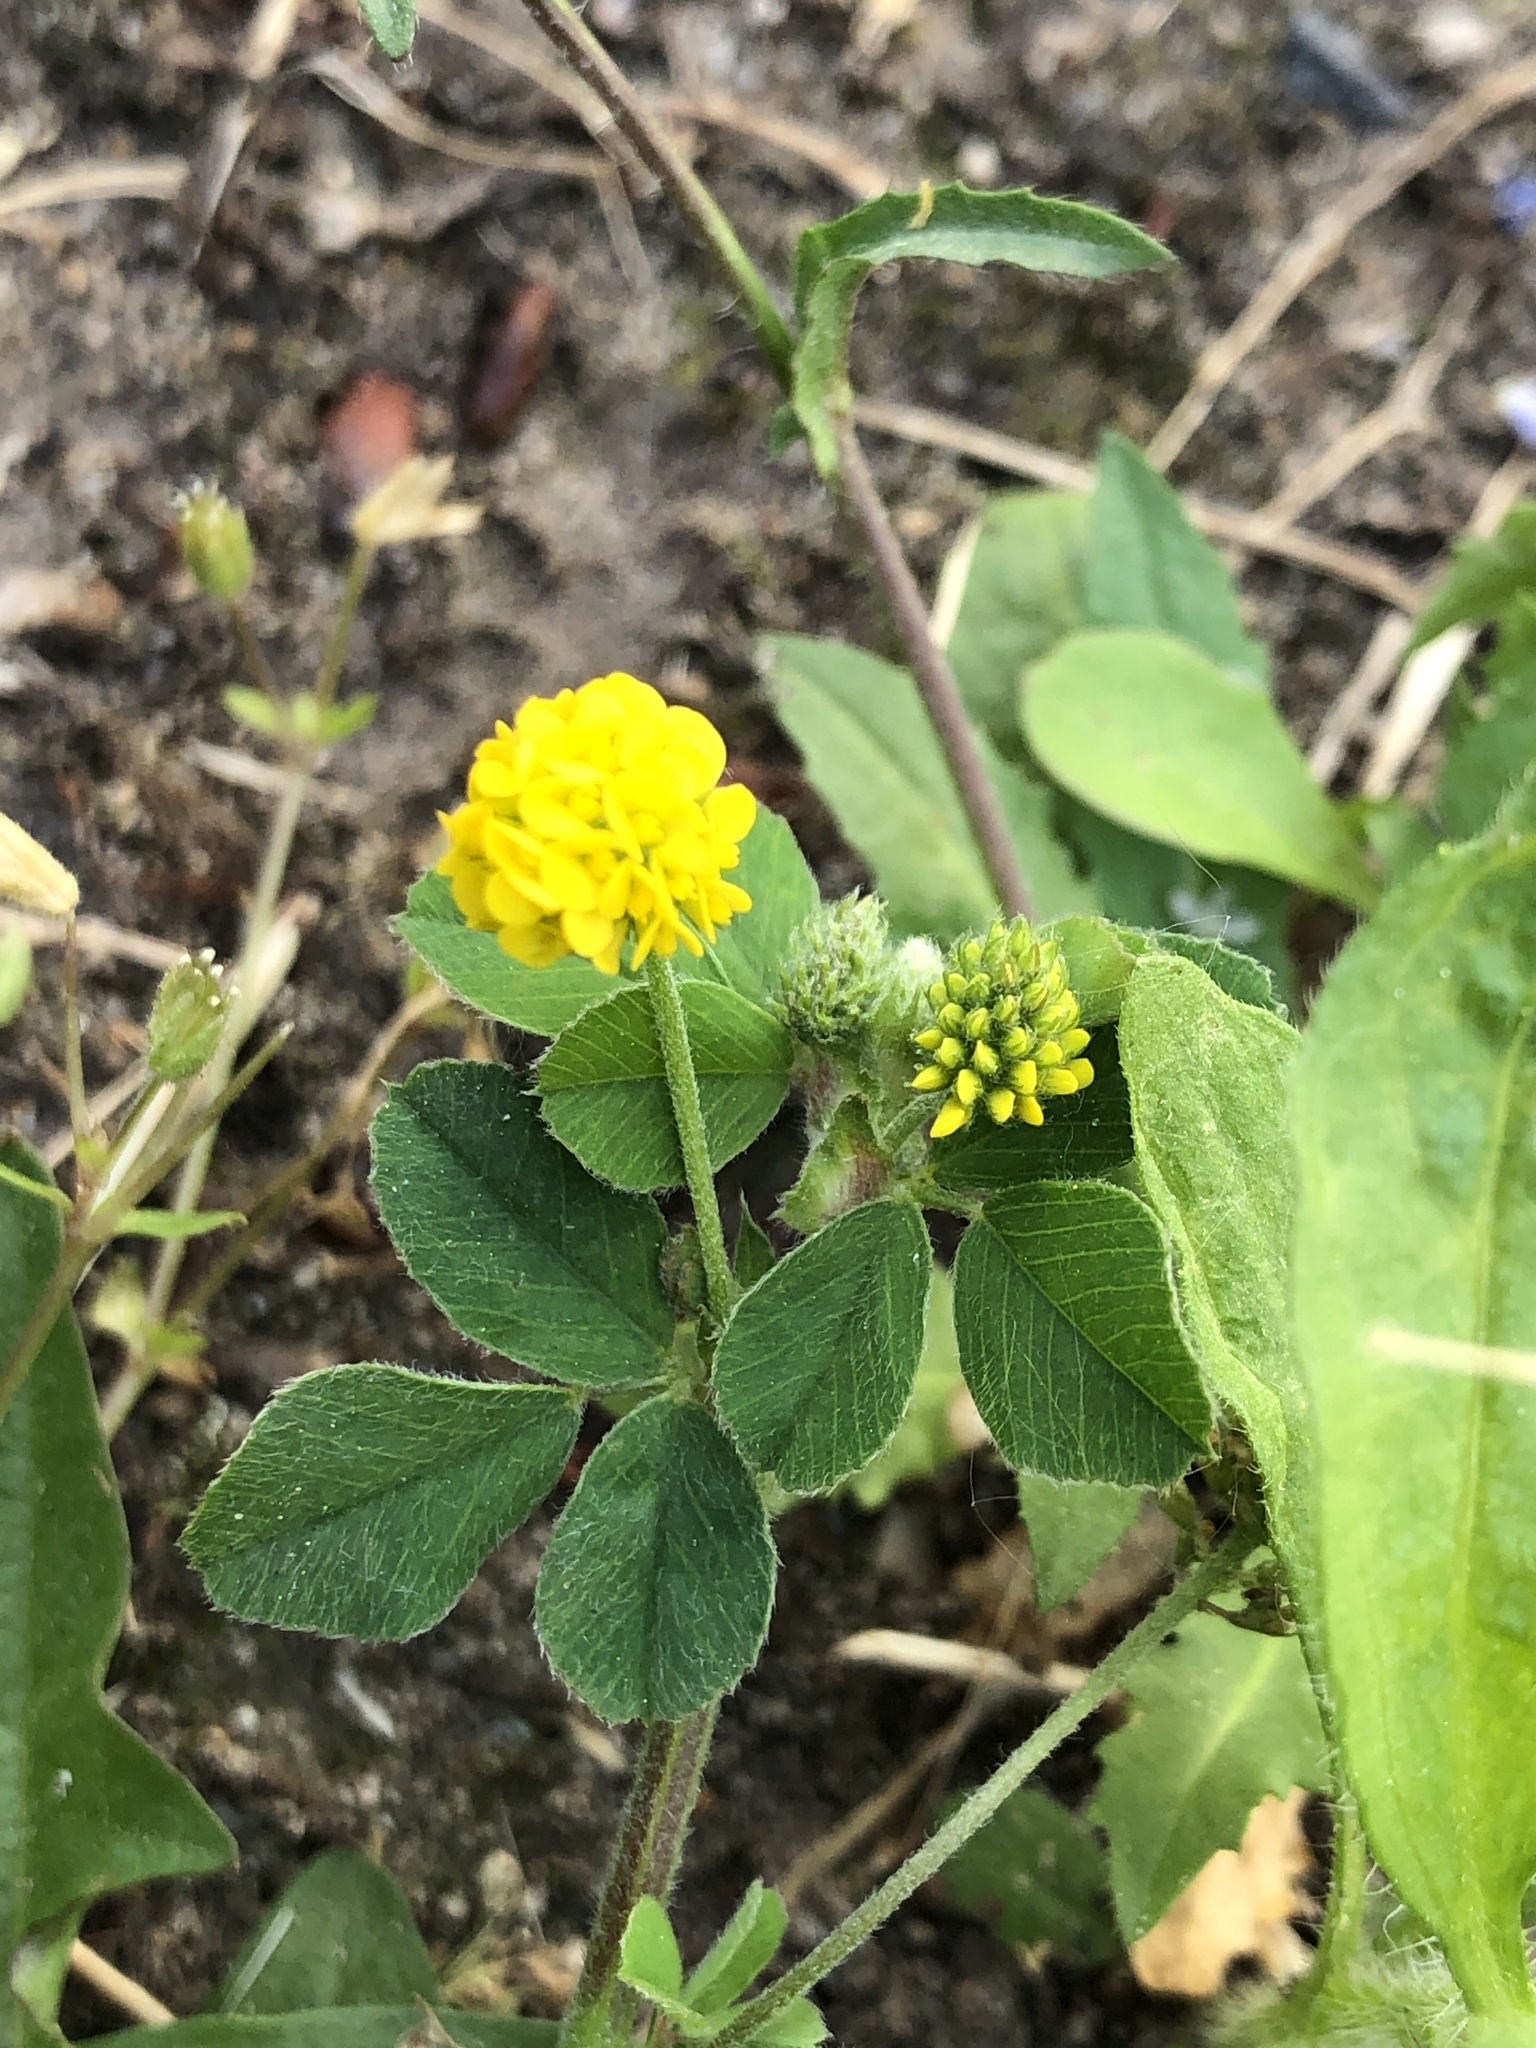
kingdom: Plantae
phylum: Tracheophyta
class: Magnoliopsida
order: Fabales
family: Fabaceae
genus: Medicago
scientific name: Medicago lupulina
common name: Black medick
